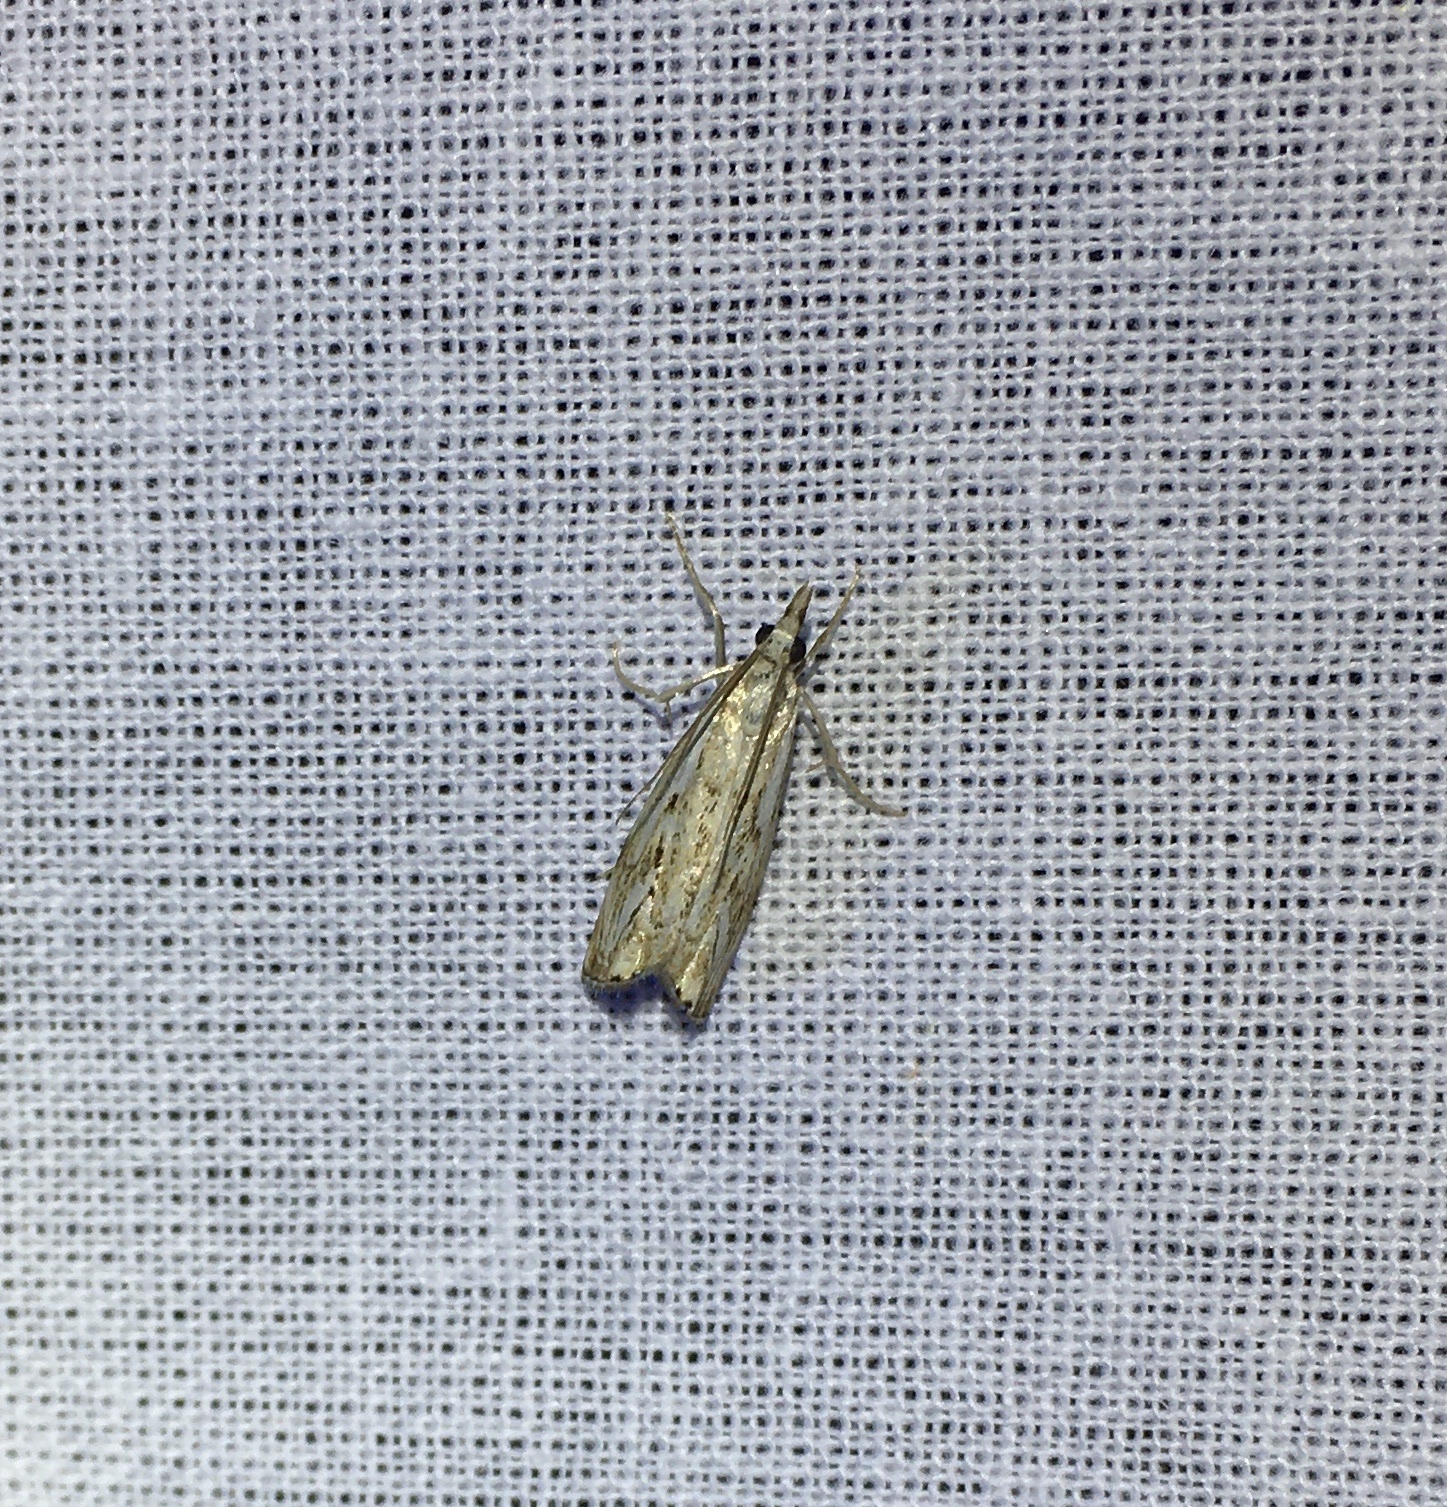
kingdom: Animalia
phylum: Arthropoda
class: Insecta
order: Lepidoptera
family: Crambidae
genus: Catoptria
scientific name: Catoptria falsella
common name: Chequered grass-veneer
